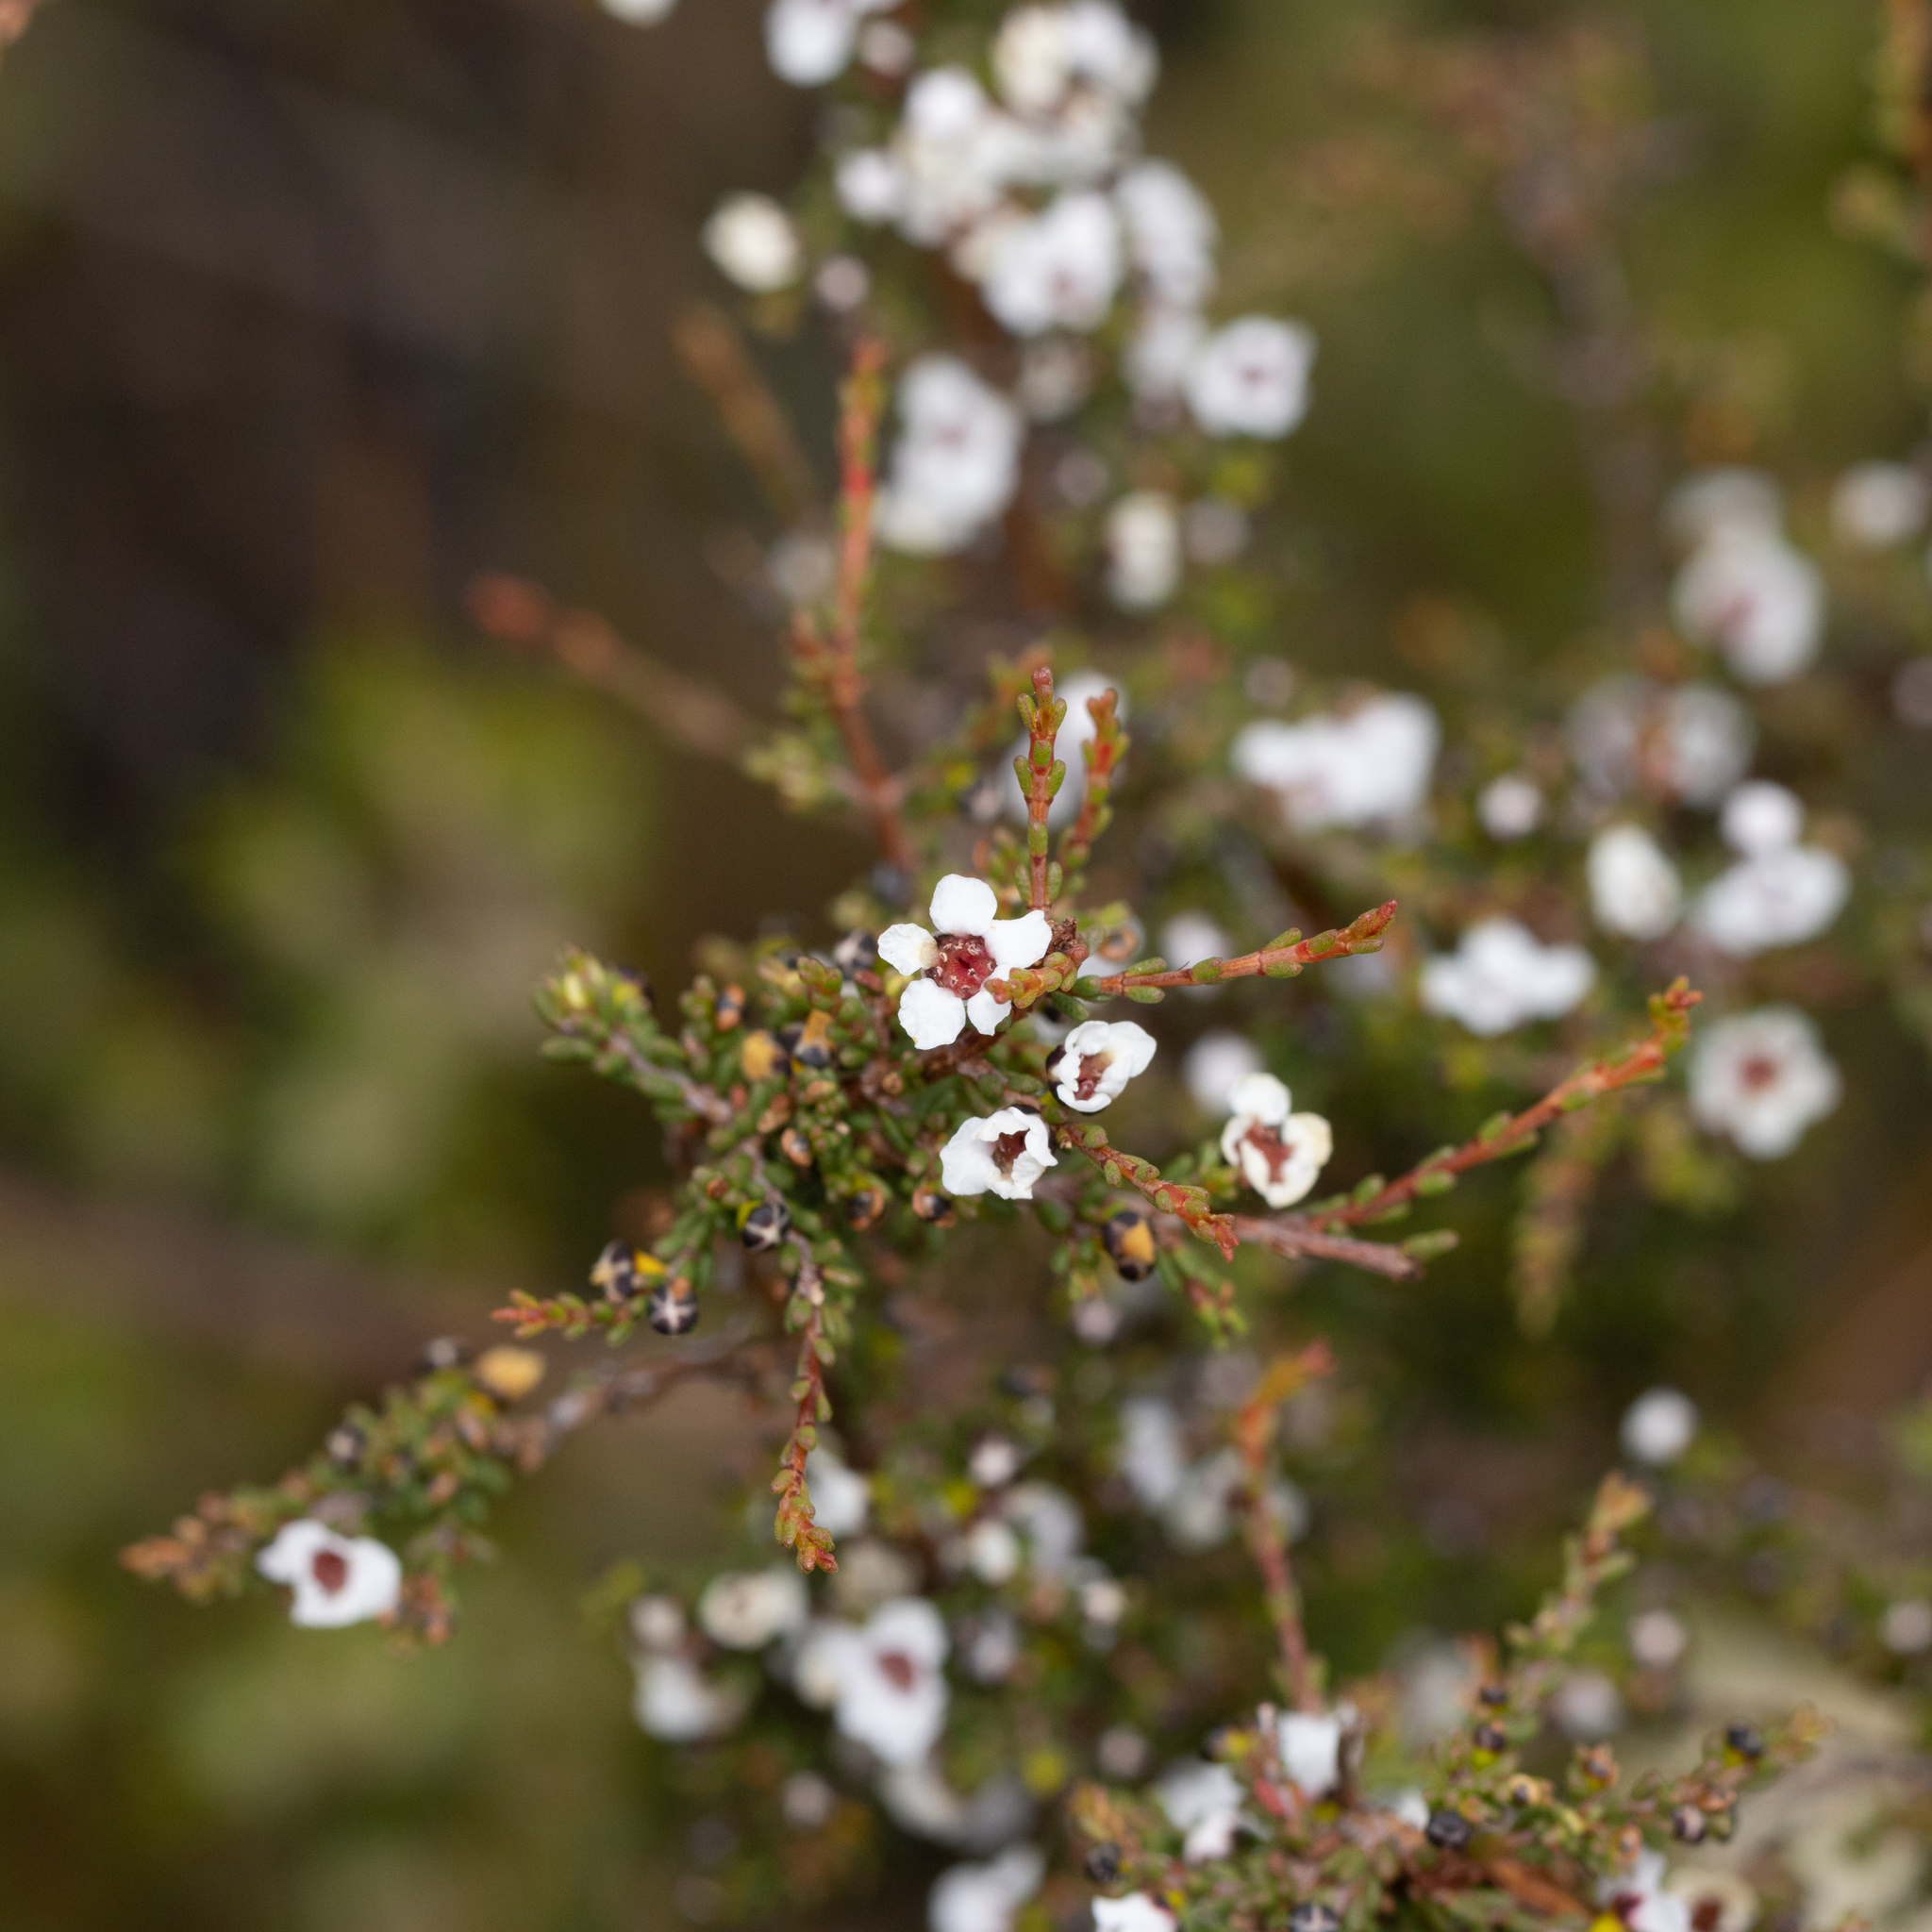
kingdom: Plantae
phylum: Tracheophyta
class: Magnoliopsida
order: Myrtales
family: Myrtaceae
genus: Rinzia
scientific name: Rinzia orientalis
